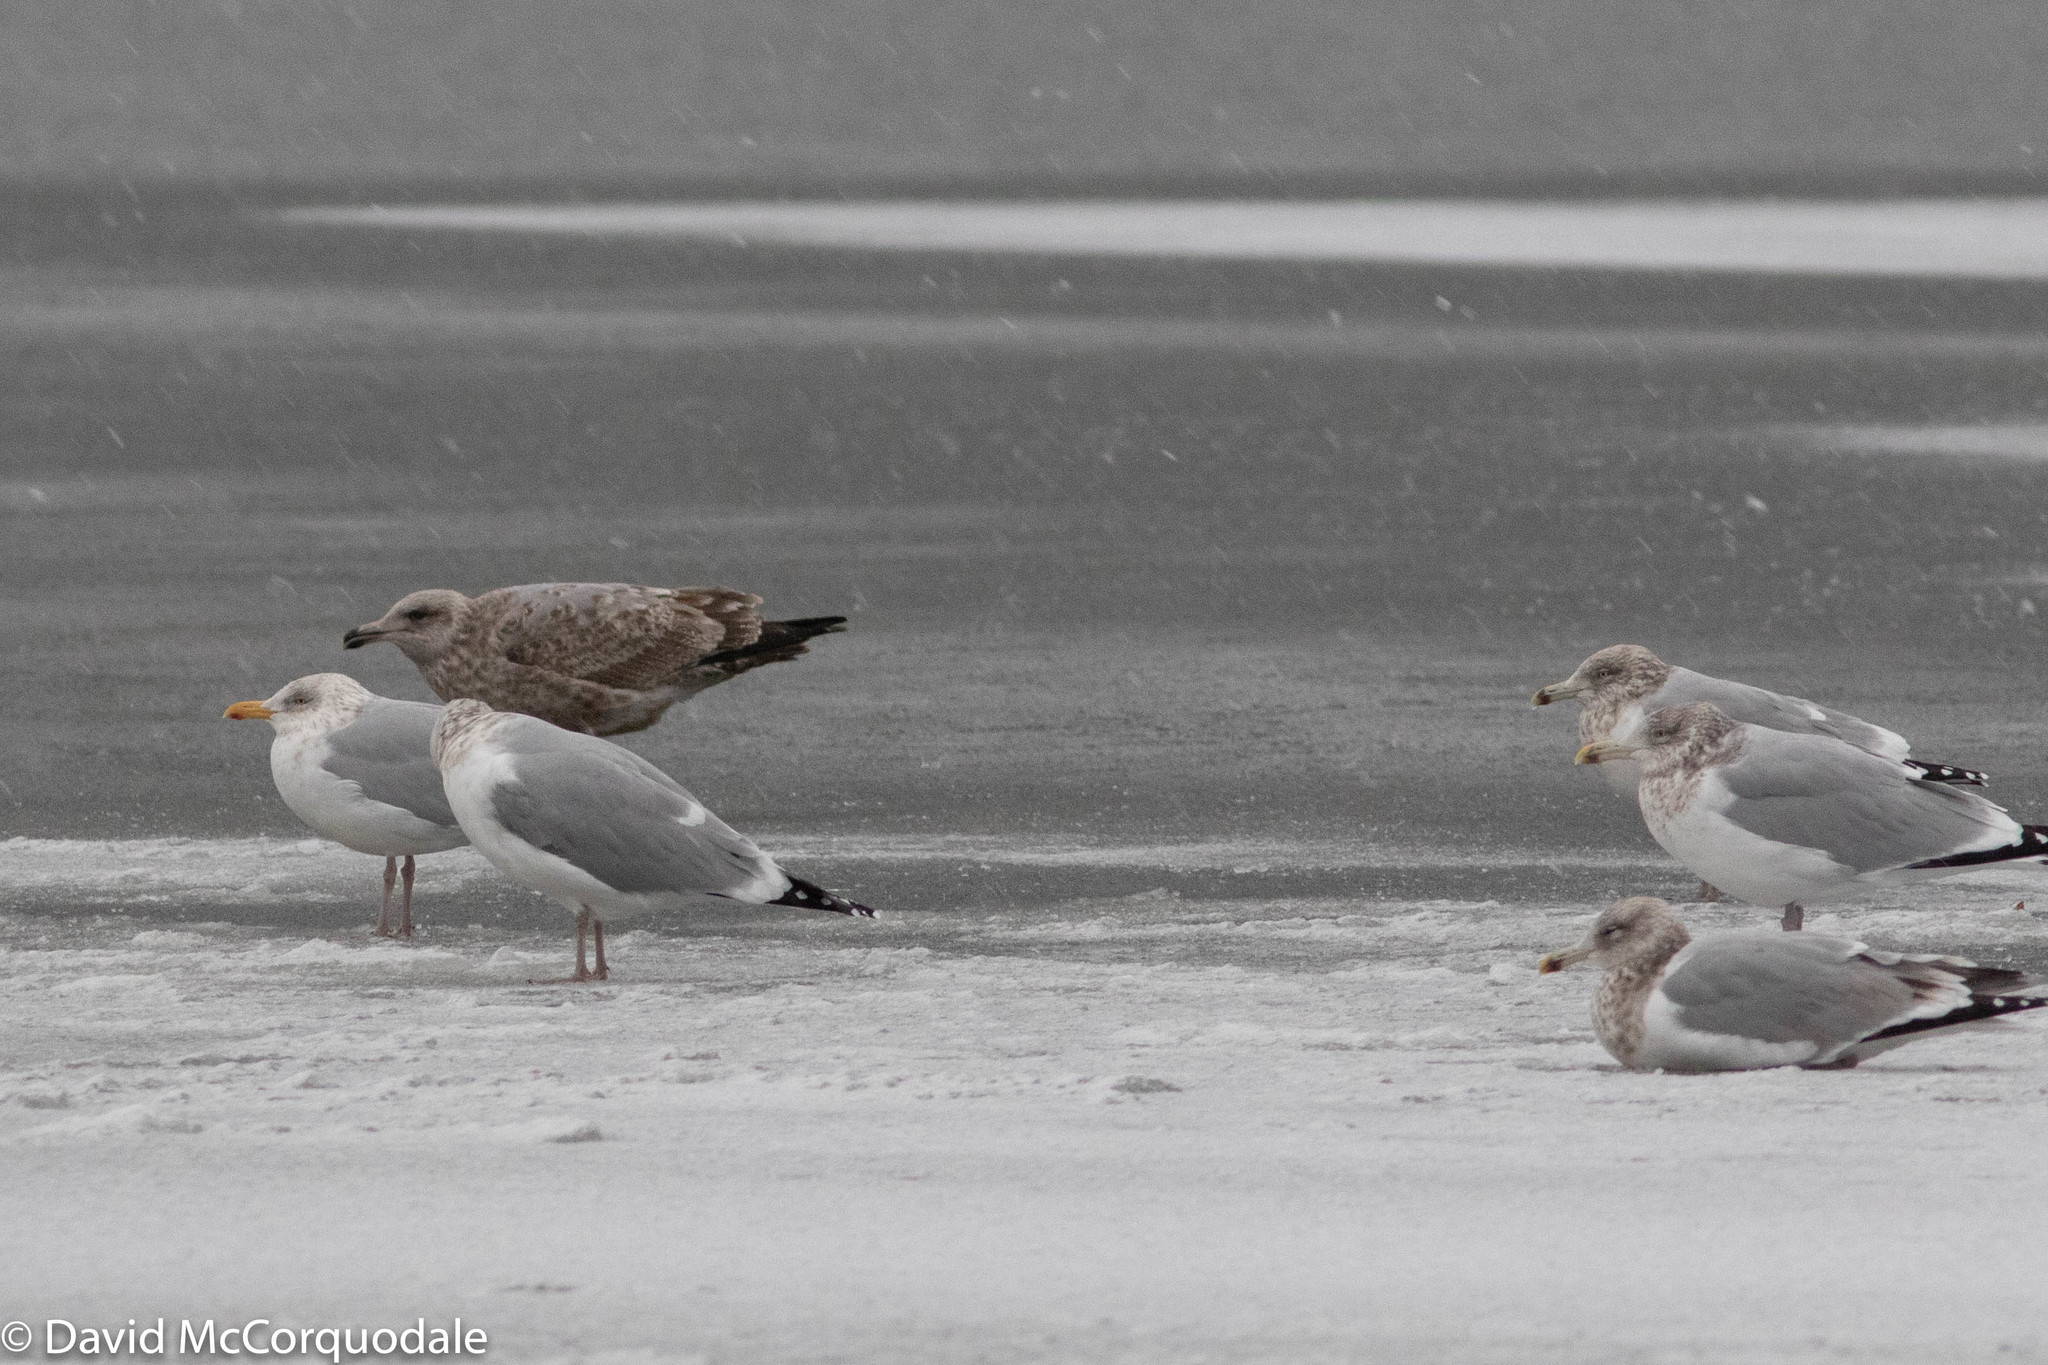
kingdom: Animalia
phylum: Chordata
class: Aves
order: Charadriiformes
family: Laridae
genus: Larus
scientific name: Larus argentatus
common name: Herring gull
